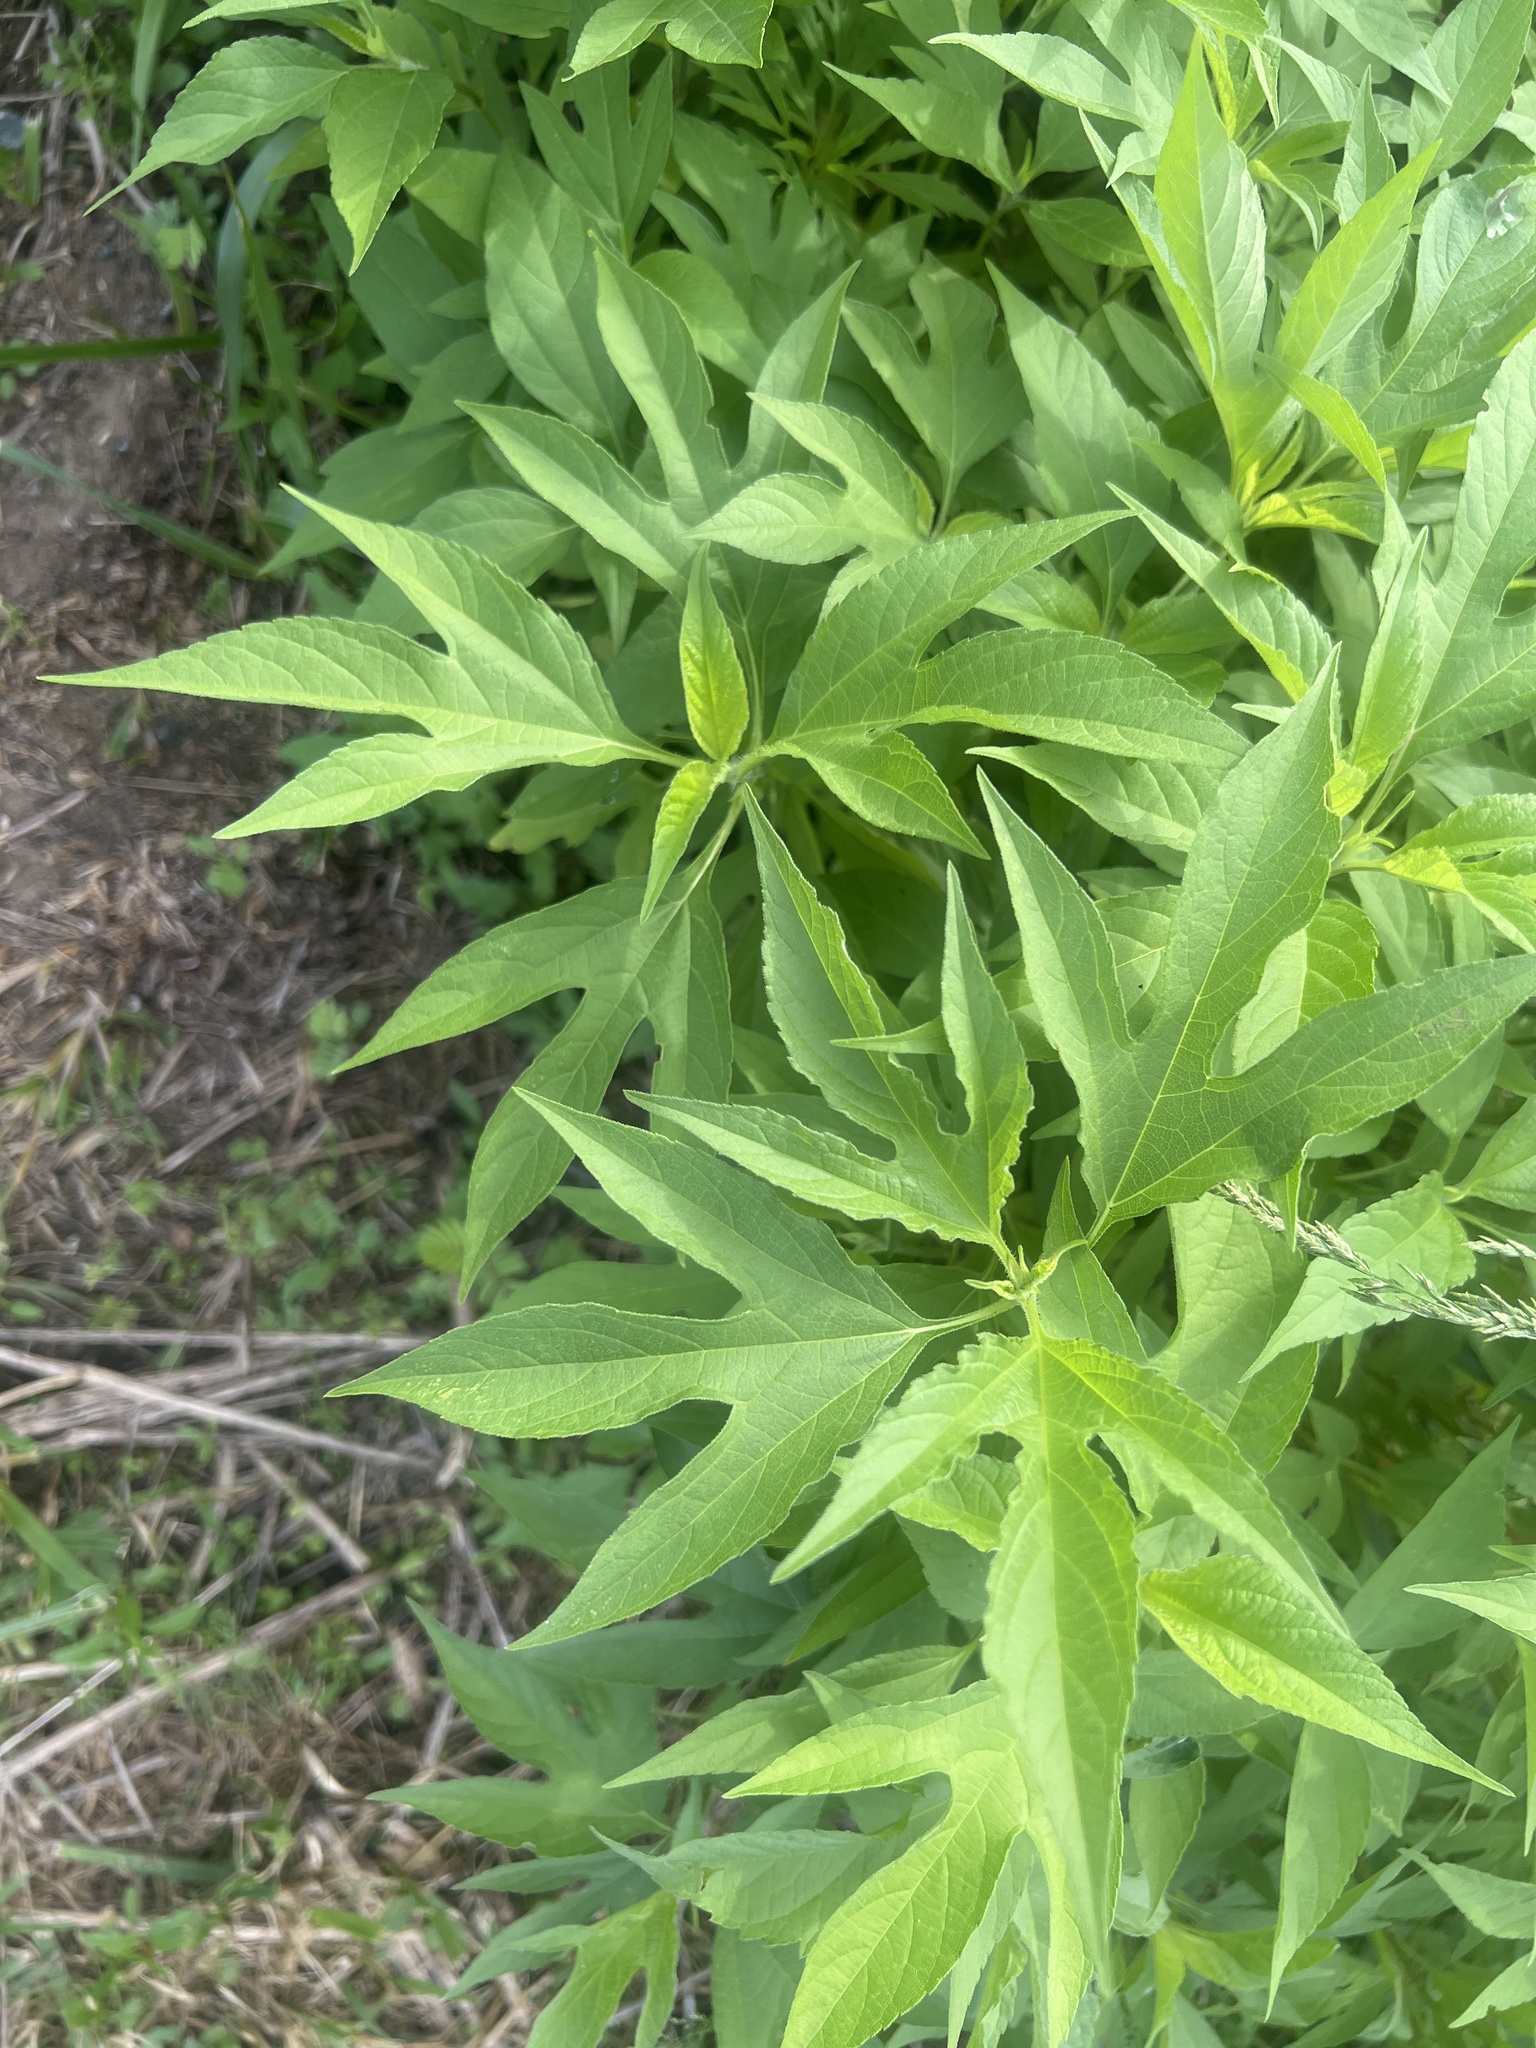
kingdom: Plantae
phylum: Tracheophyta
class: Magnoliopsida
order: Asterales
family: Asteraceae
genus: Ambrosia
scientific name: Ambrosia trifida
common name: Giant ragweed
